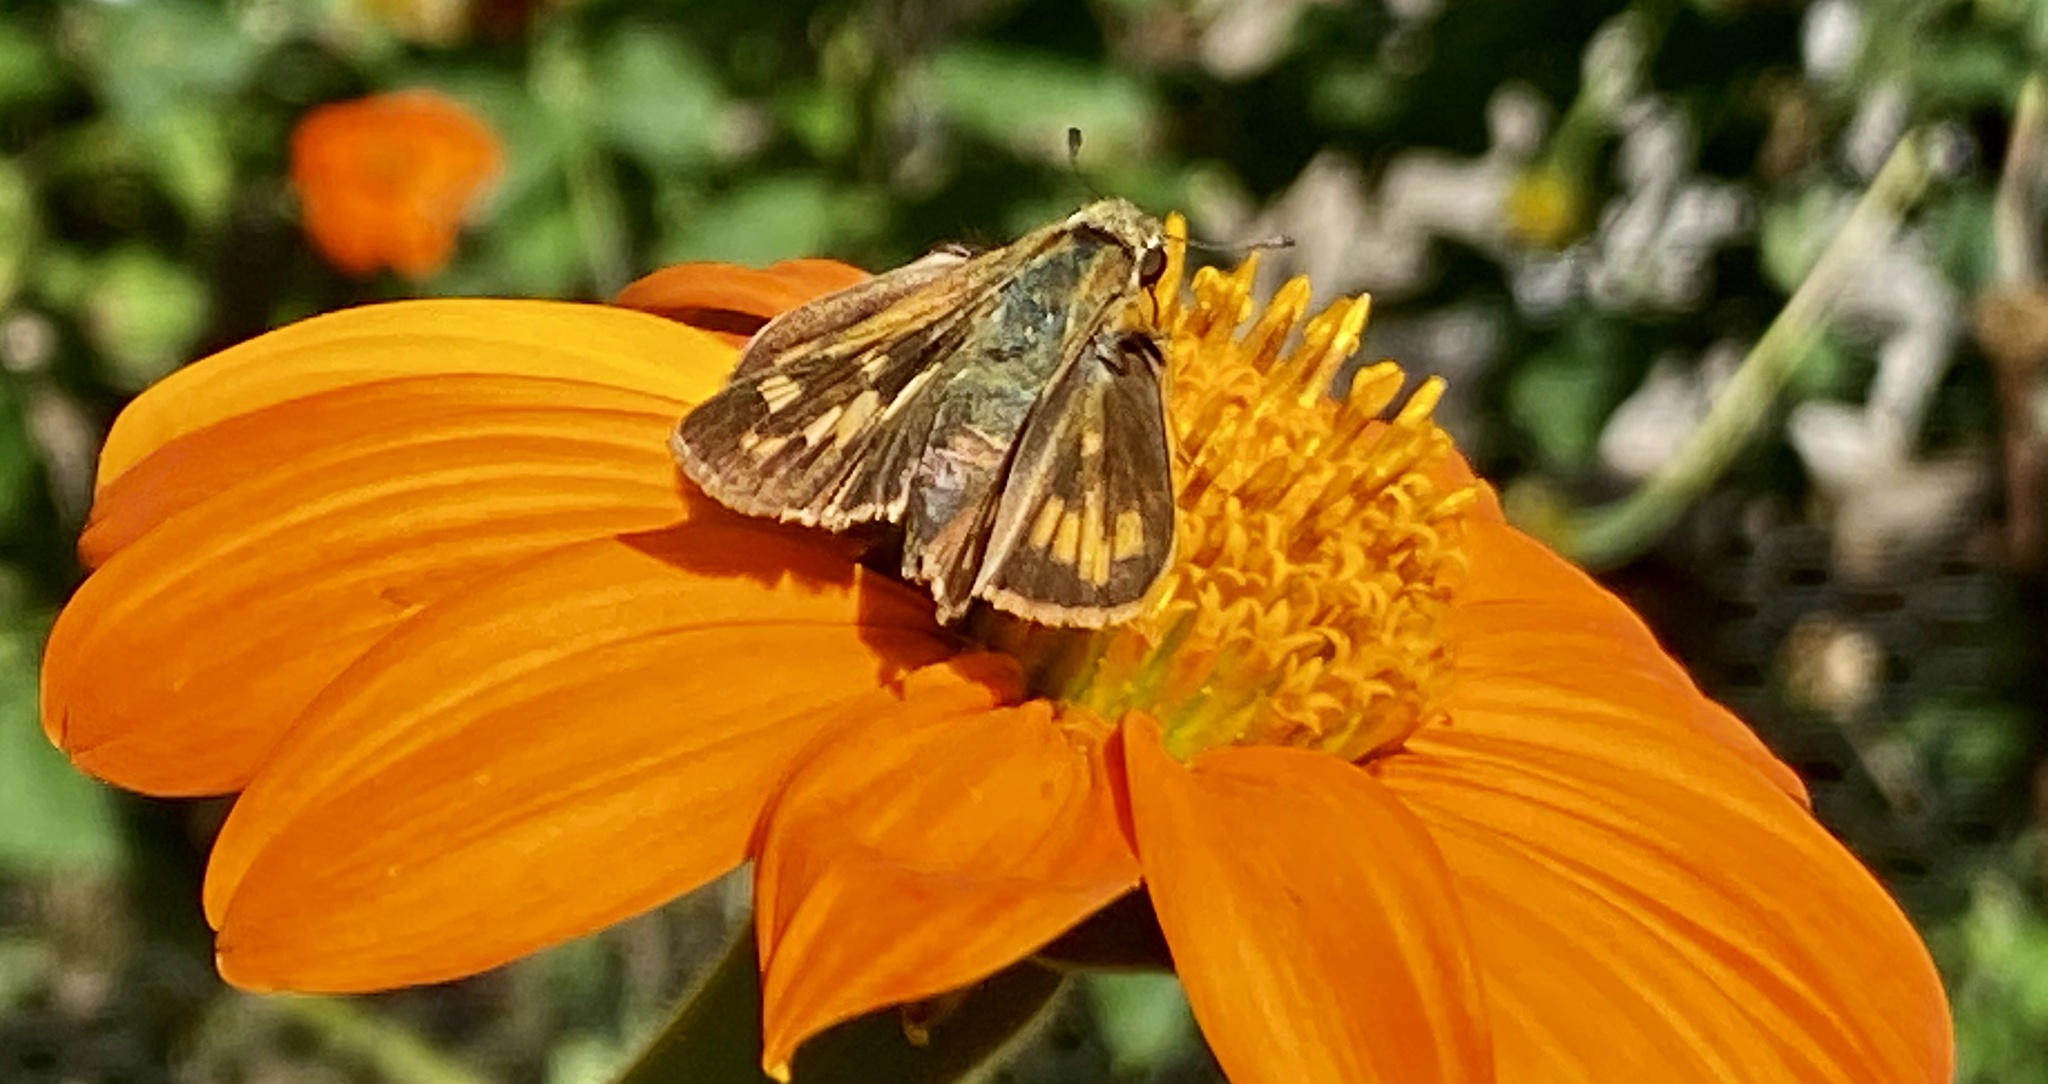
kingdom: Animalia
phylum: Arthropoda
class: Insecta
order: Lepidoptera
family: Hesperiidae
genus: Hylephila
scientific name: Hylephila phyleus
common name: Fiery skipper
